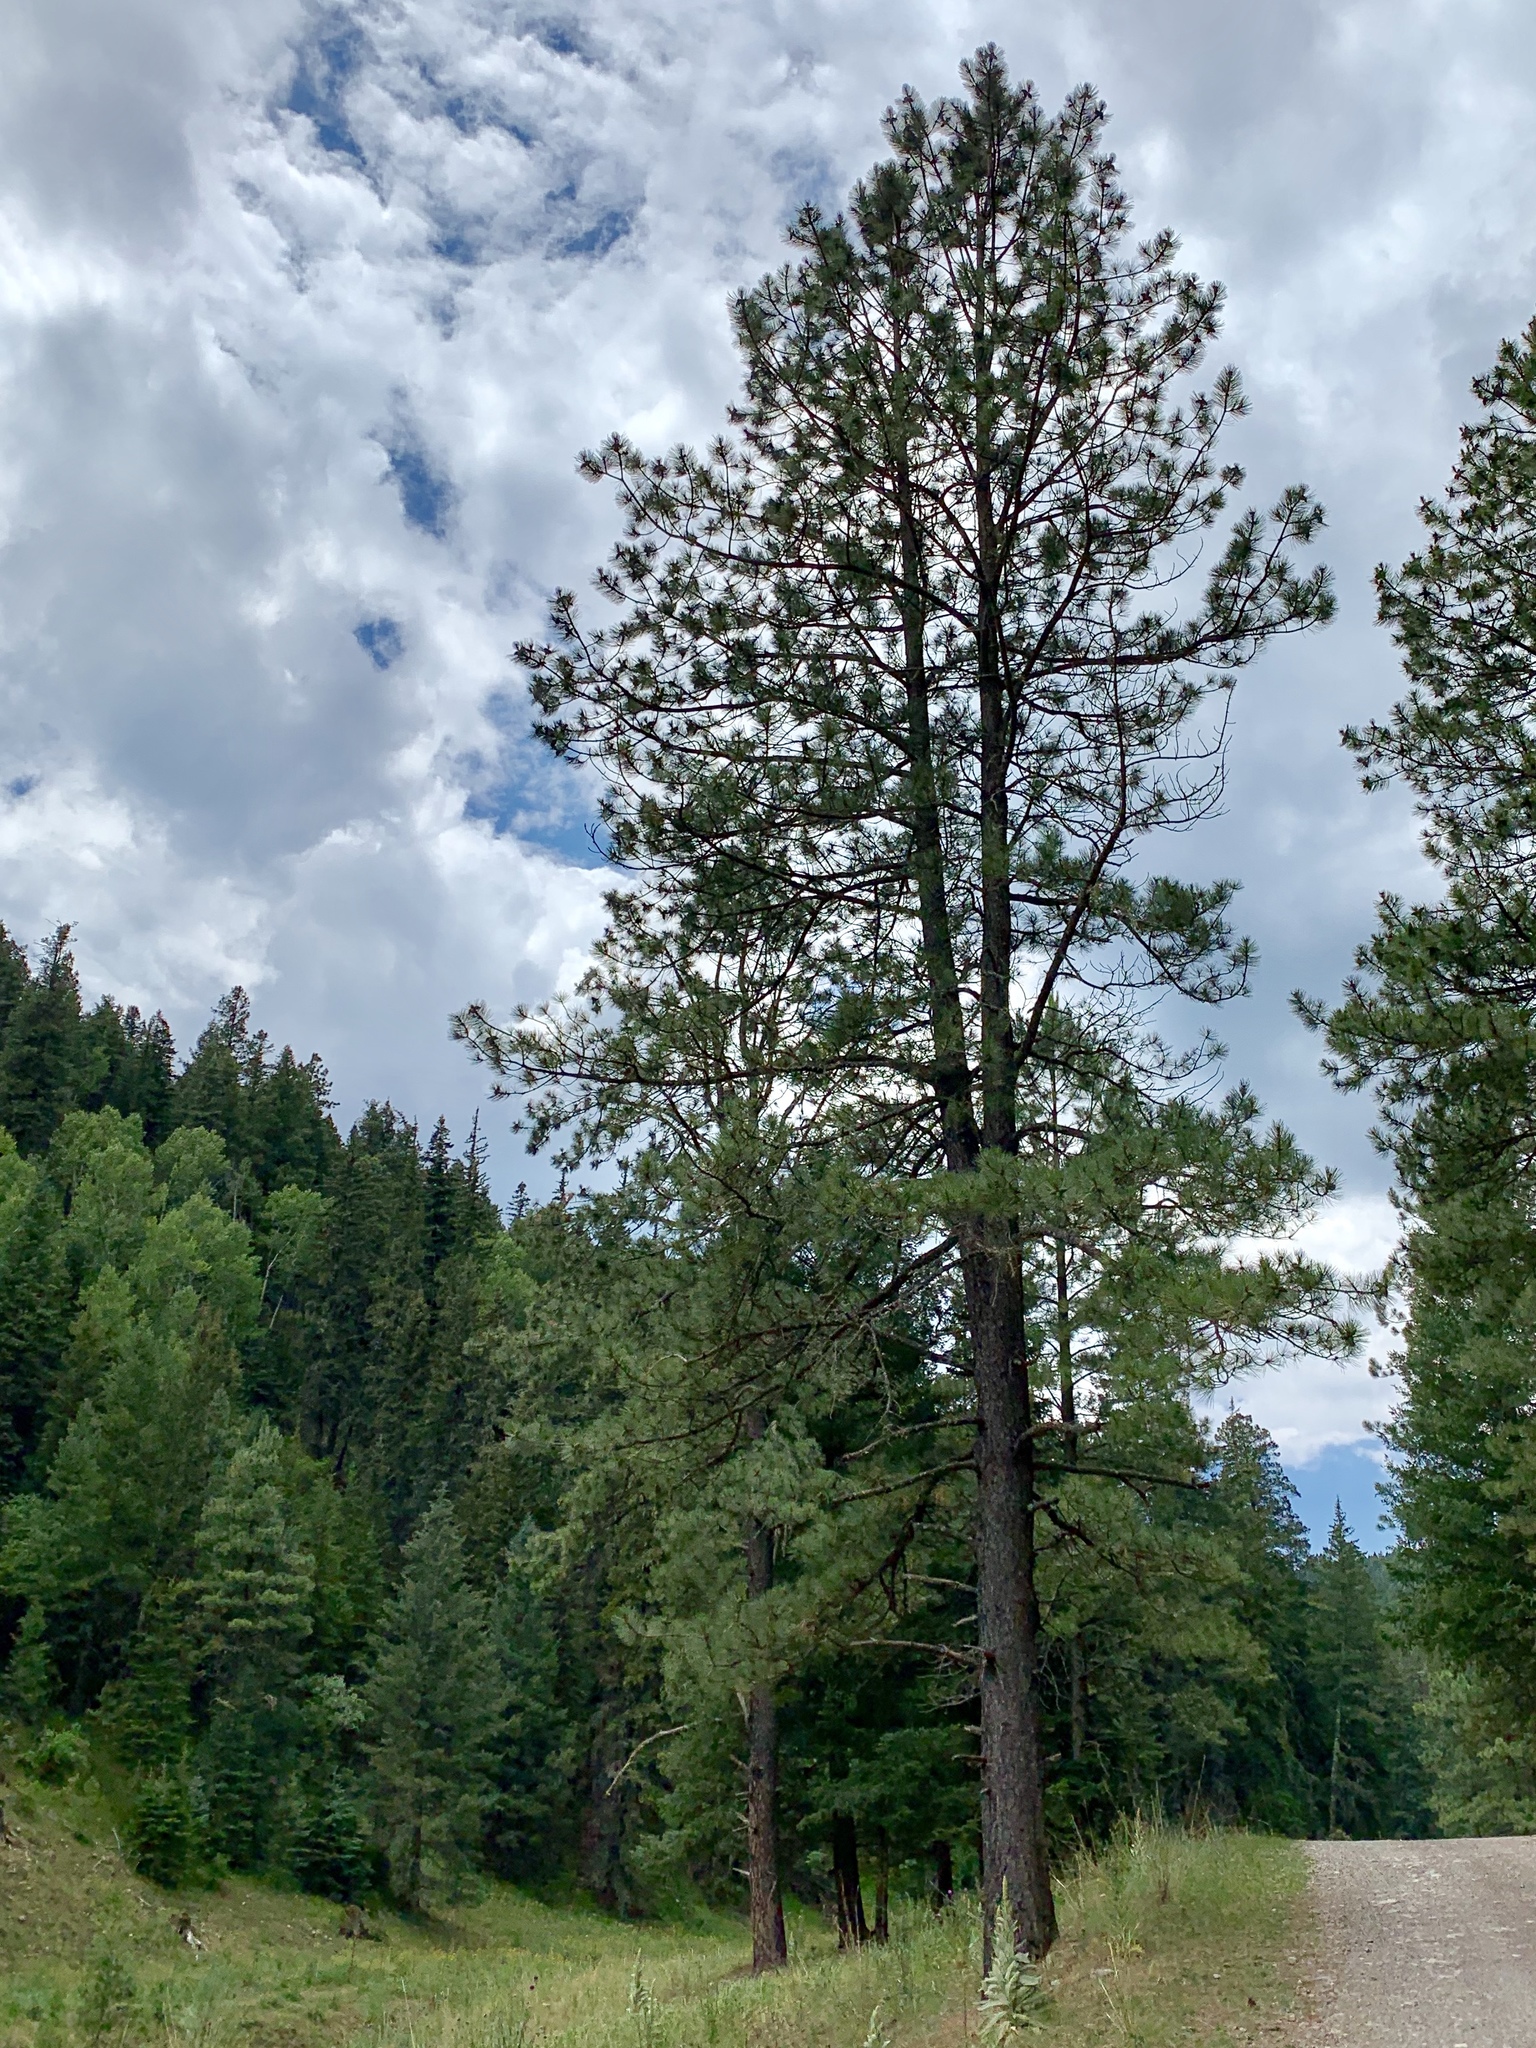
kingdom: Plantae
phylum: Tracheophyta
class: Pinopsida
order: Pinales
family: Pinaceae
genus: Pinus
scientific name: Pinus ponderosa
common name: Western yellow-pine
